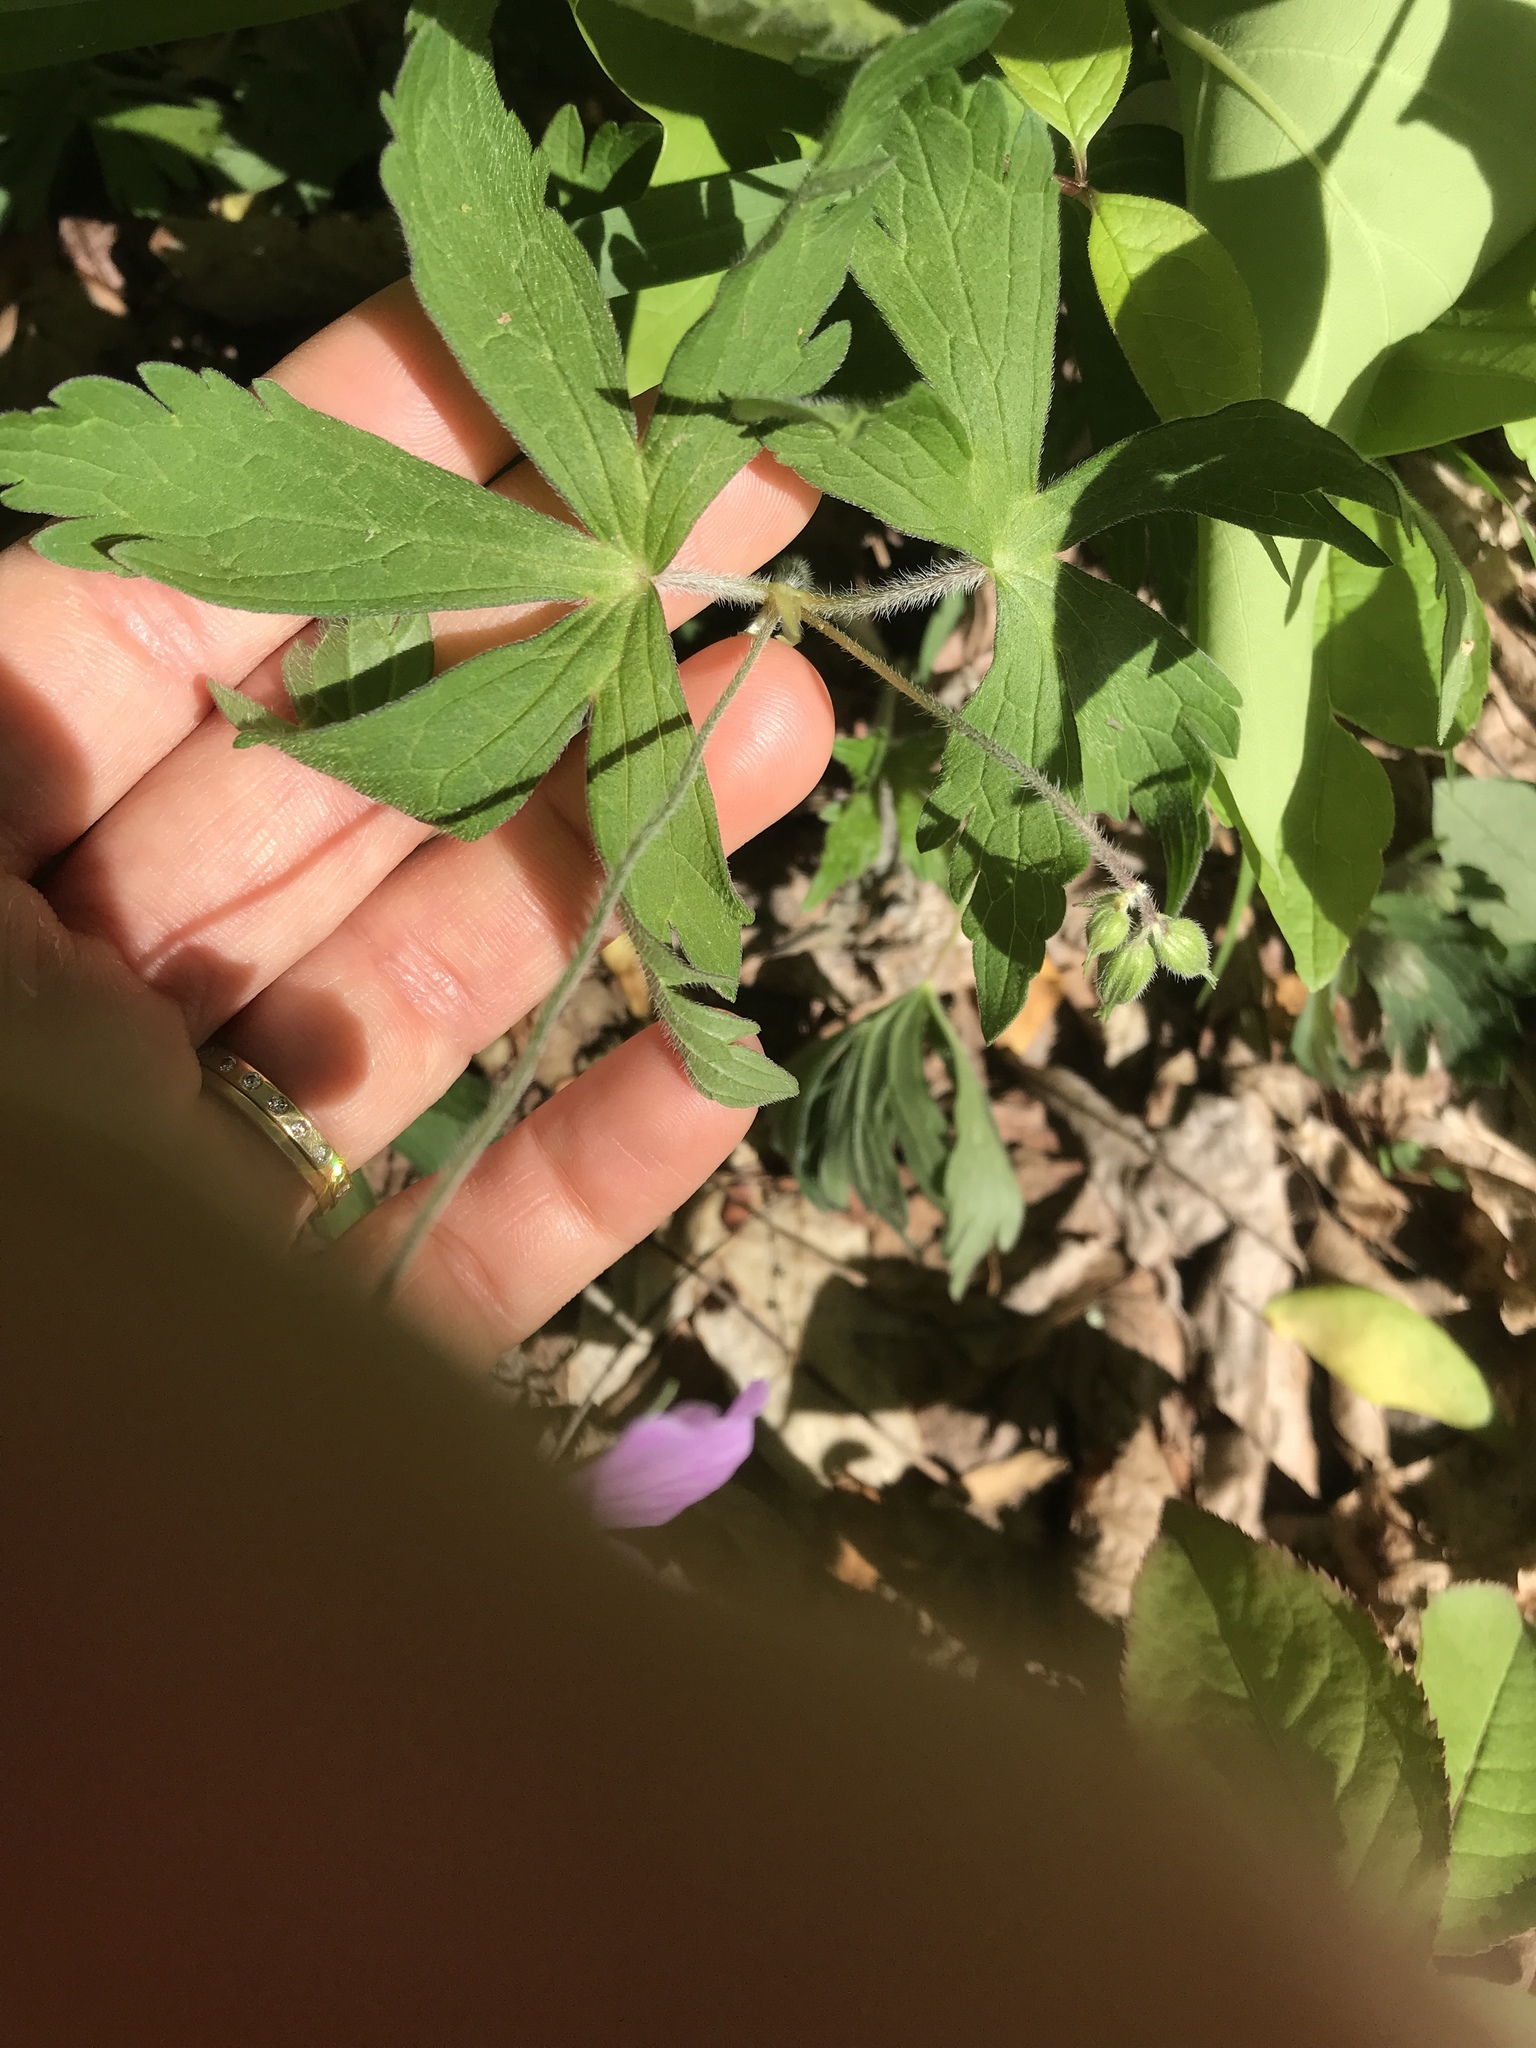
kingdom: Plantae
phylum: Tracheophyta
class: Magnoliopsida
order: Geraniales
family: Geraniaceae
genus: Geranium
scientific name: Geranium maculatum
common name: Spotted geranium
